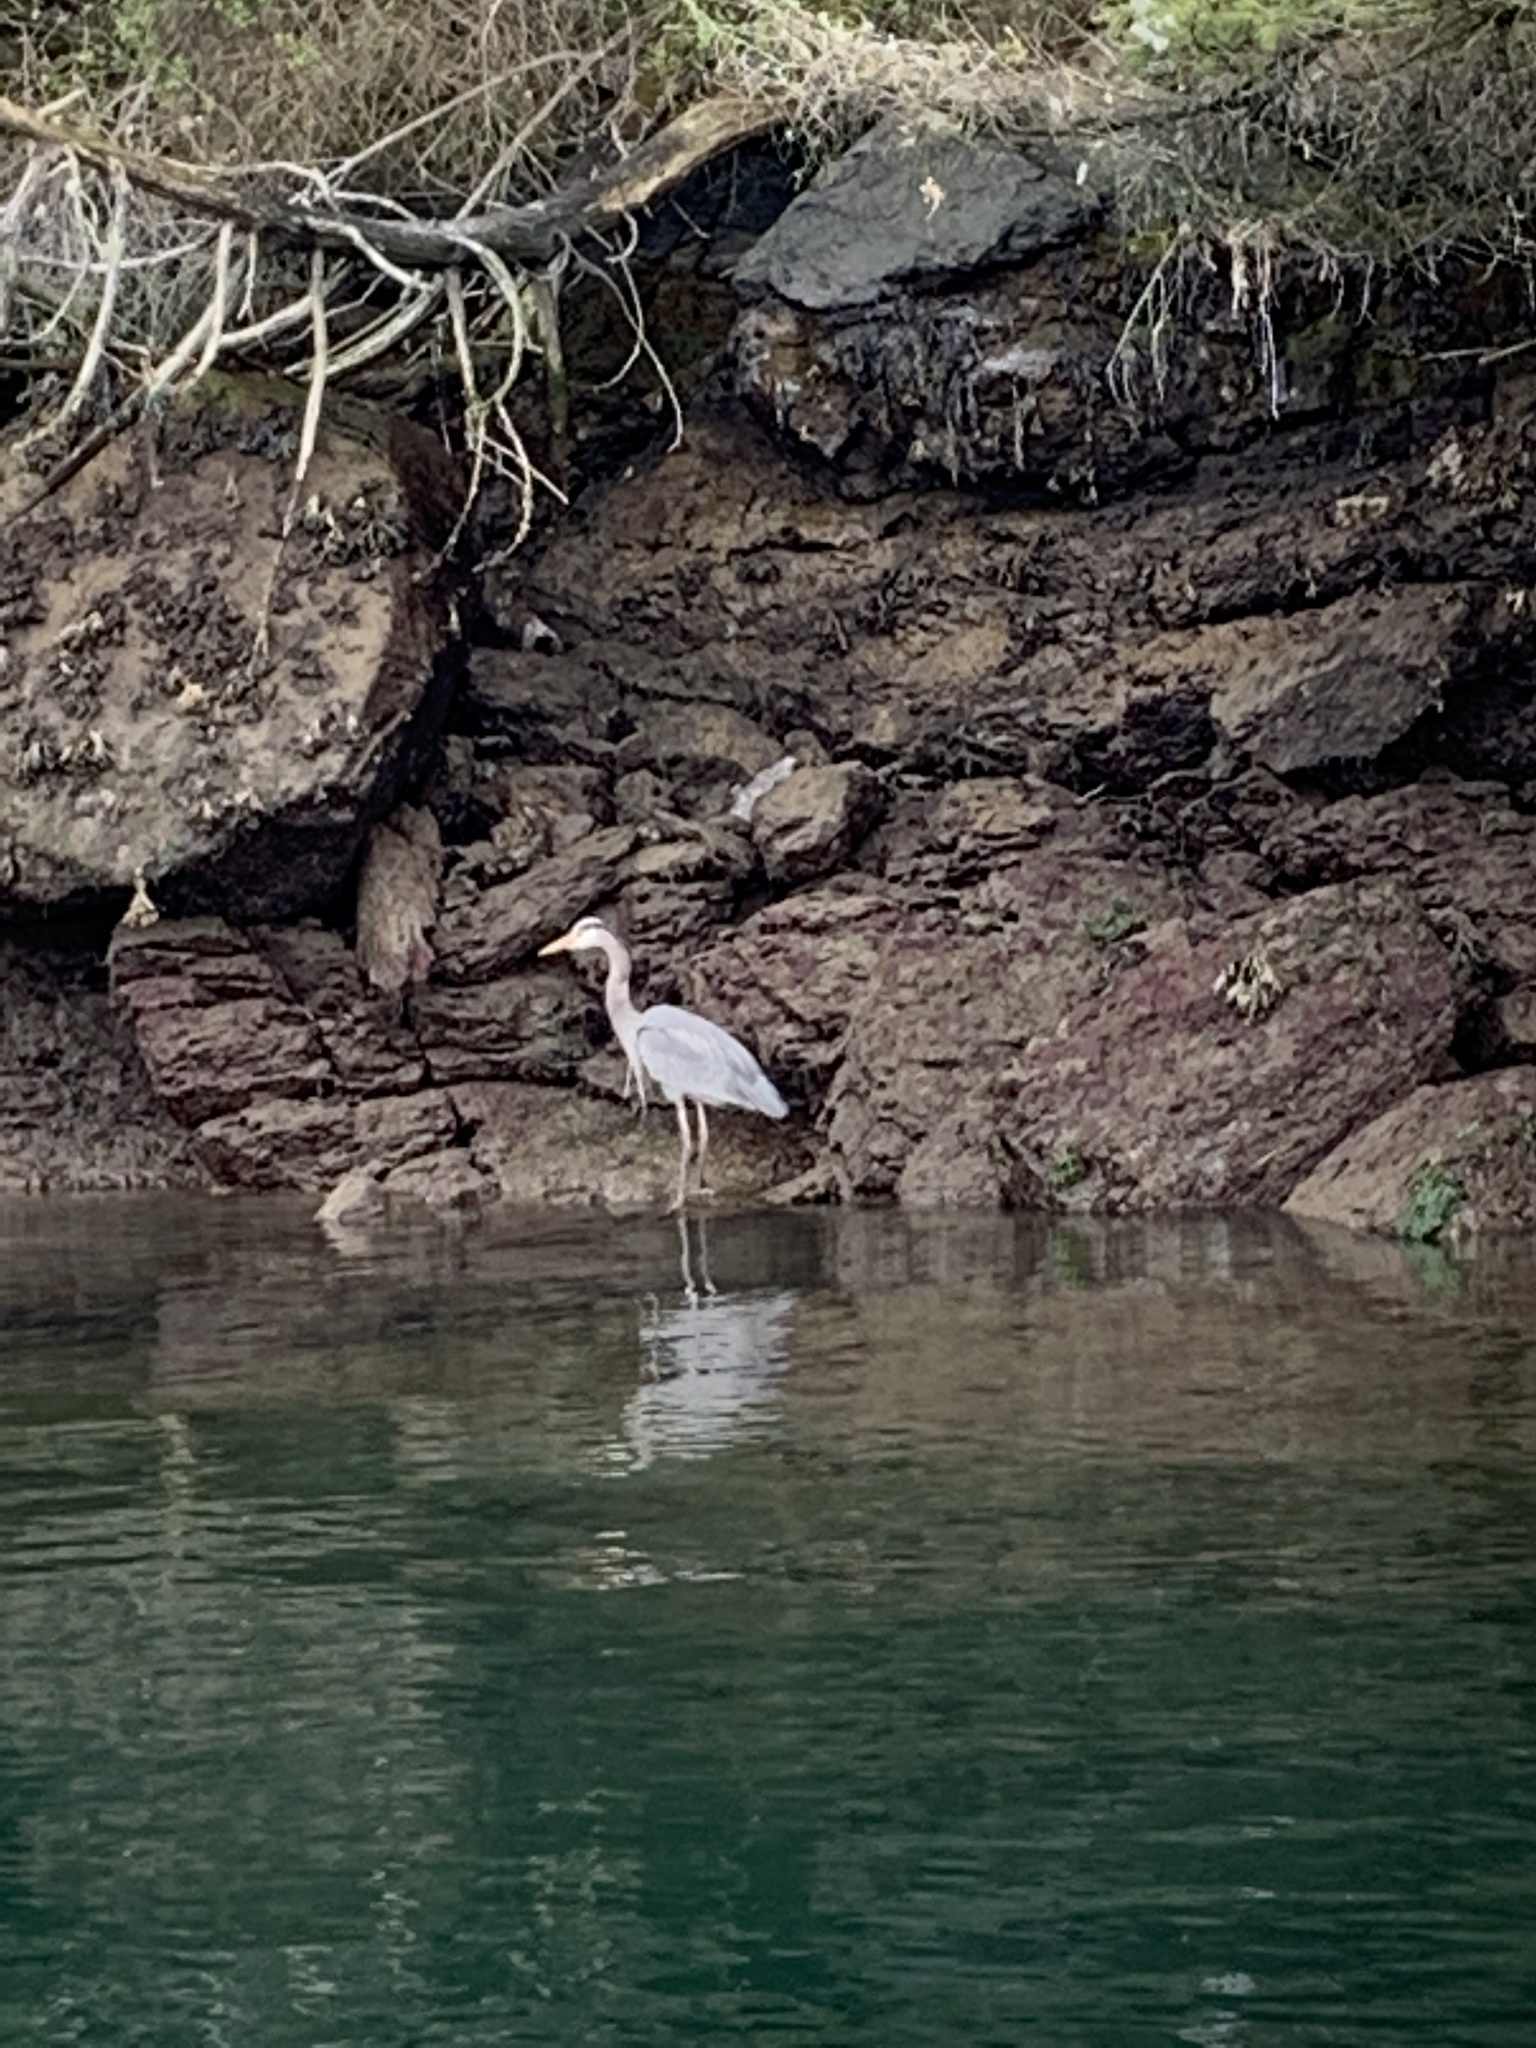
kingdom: Animalia
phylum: Chordata
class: Aves
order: Pelecaniformes
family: Ardeidae
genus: Ardea
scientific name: Ardea herodias
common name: Great blue heron
